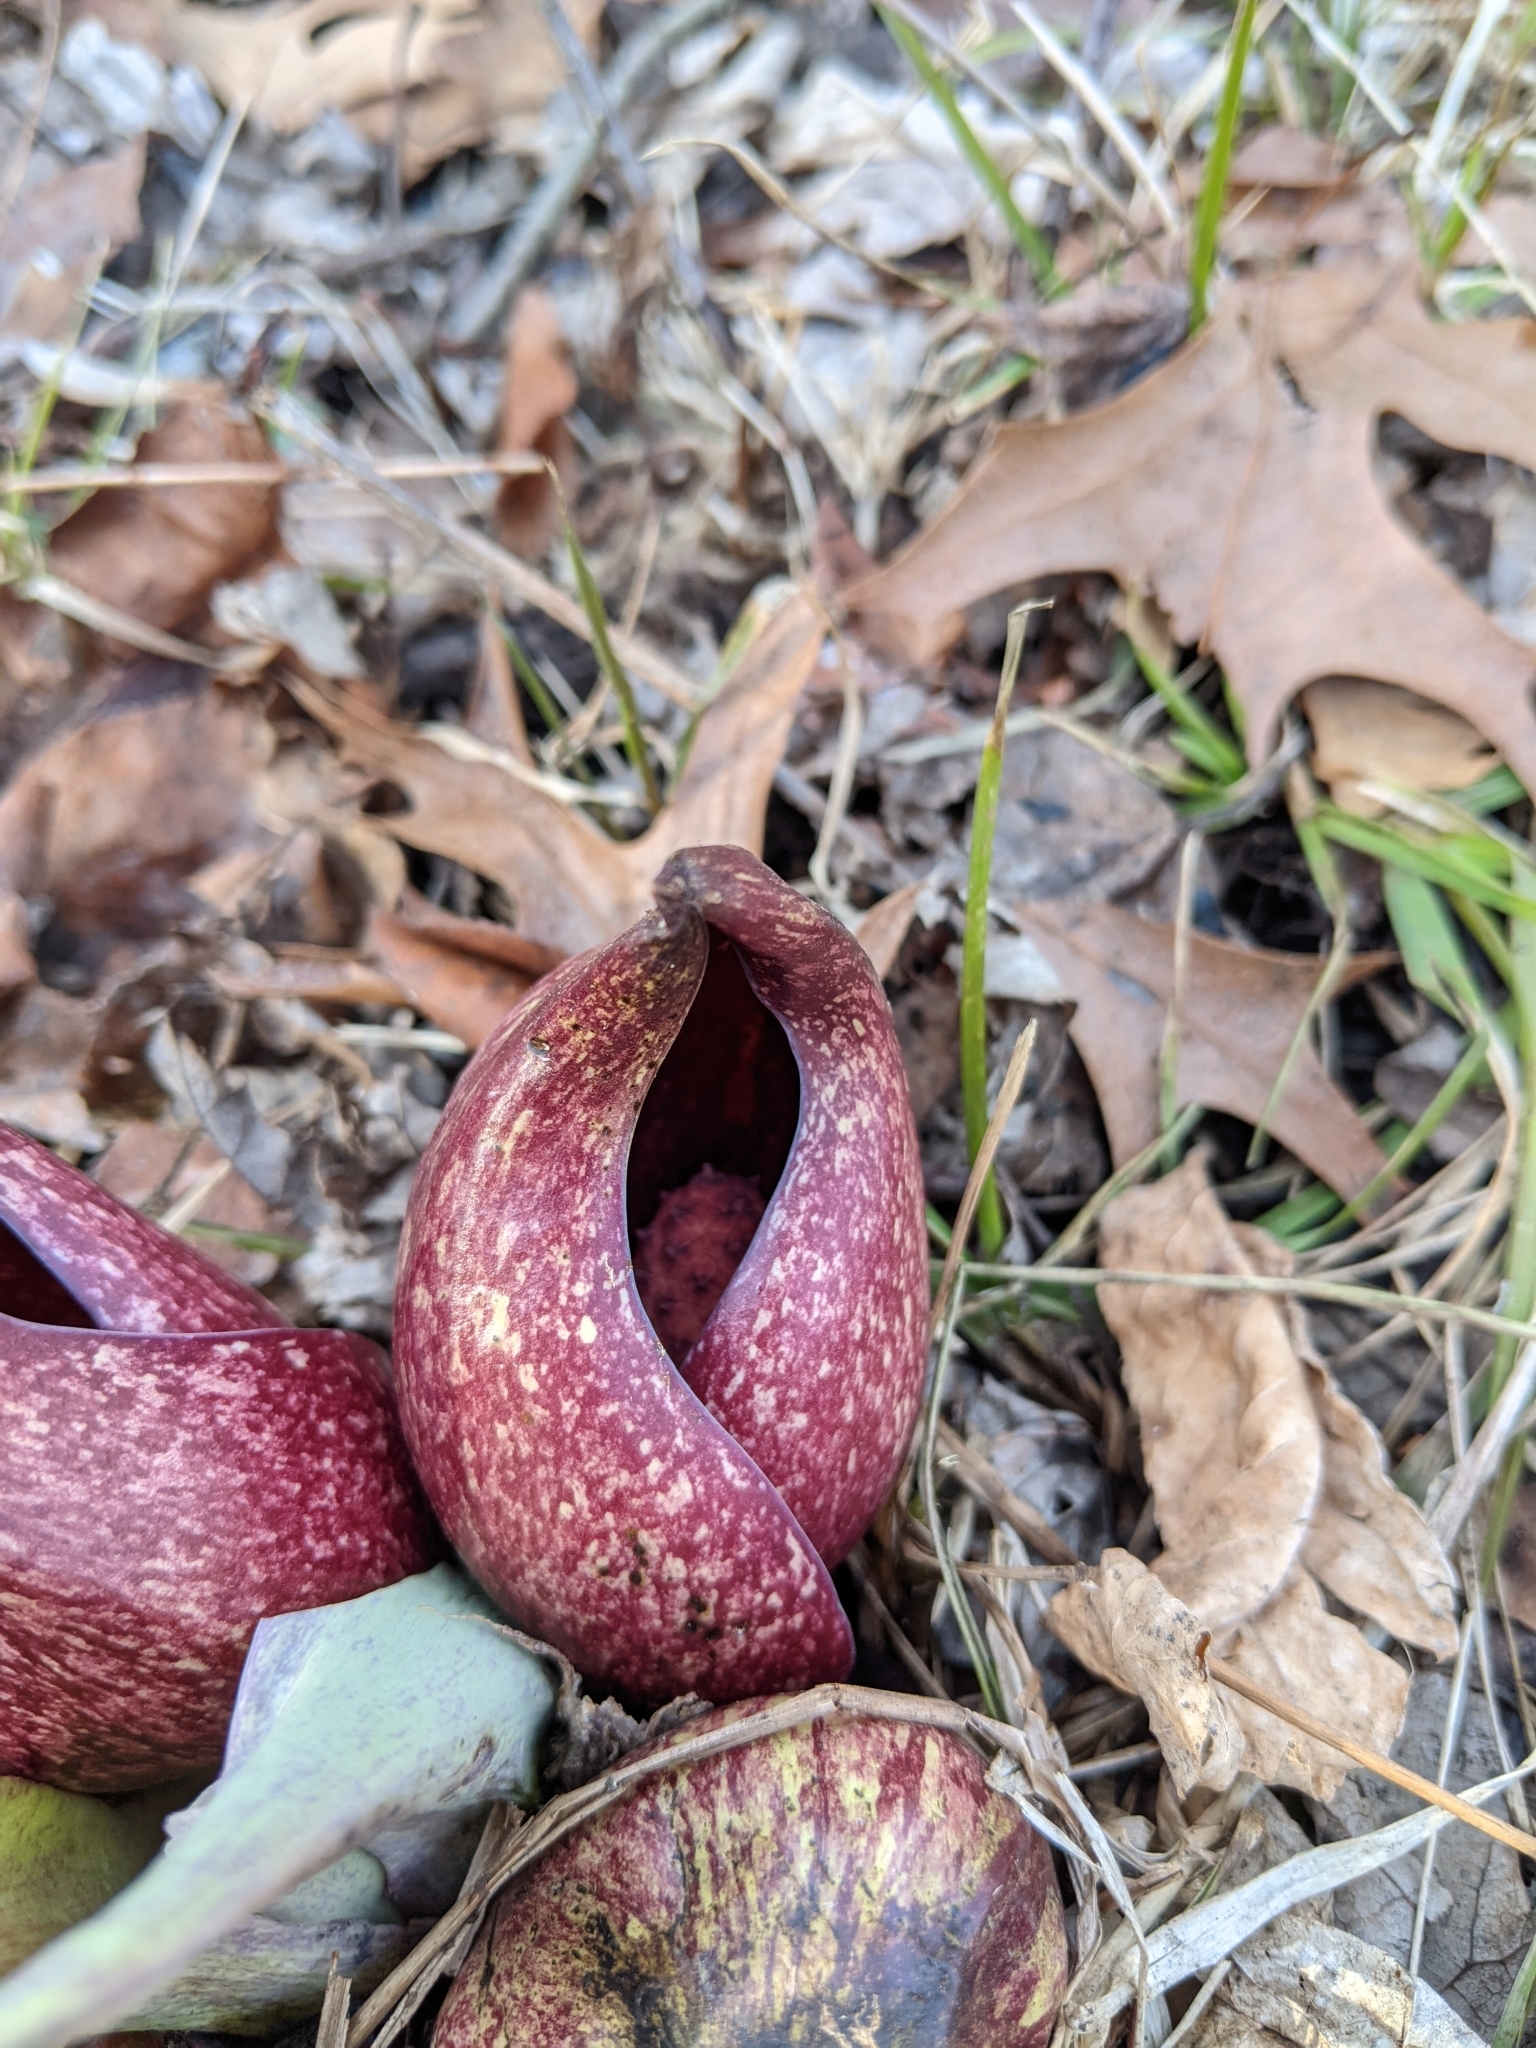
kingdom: Plantae
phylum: Tracheophyta
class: Liliopsida
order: Alismatales
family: Araceae
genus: Symplocarpus
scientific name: Symplocarpus foetidus
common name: Eastern skunk cabbage
